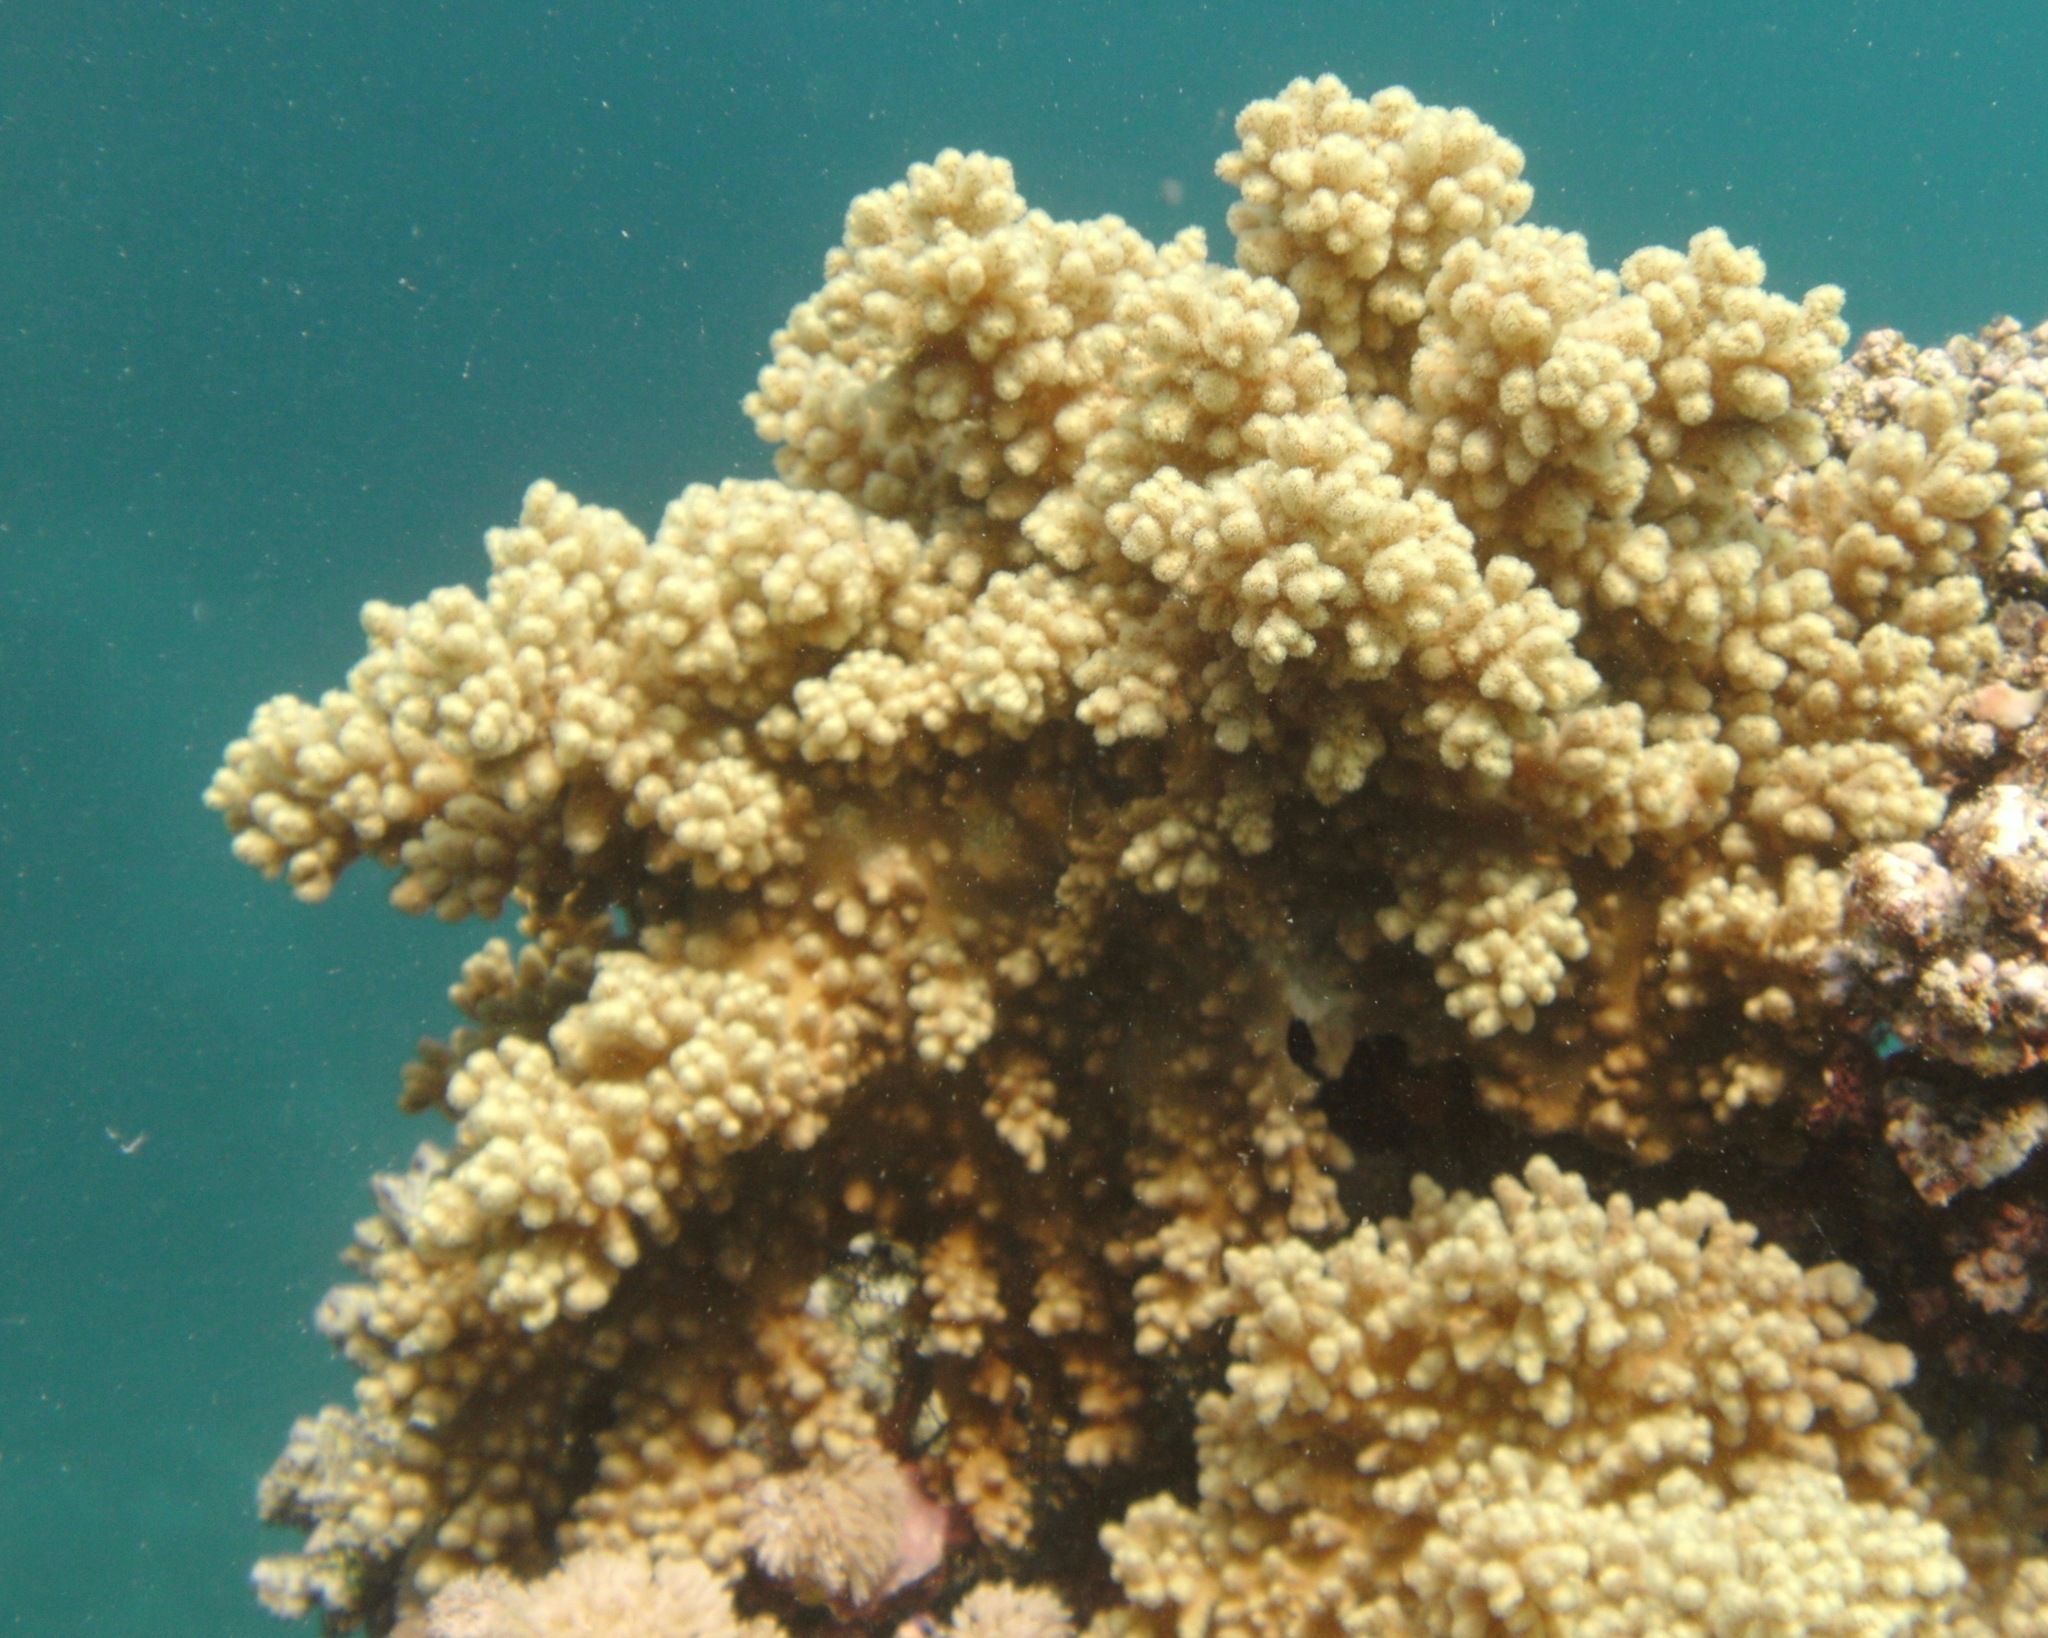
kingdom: Animalia
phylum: Cnidaria
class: Anthozoa
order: Malacalcyonacea
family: Sarcophytidae
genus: Sclerophytum
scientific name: Sclerophytum
